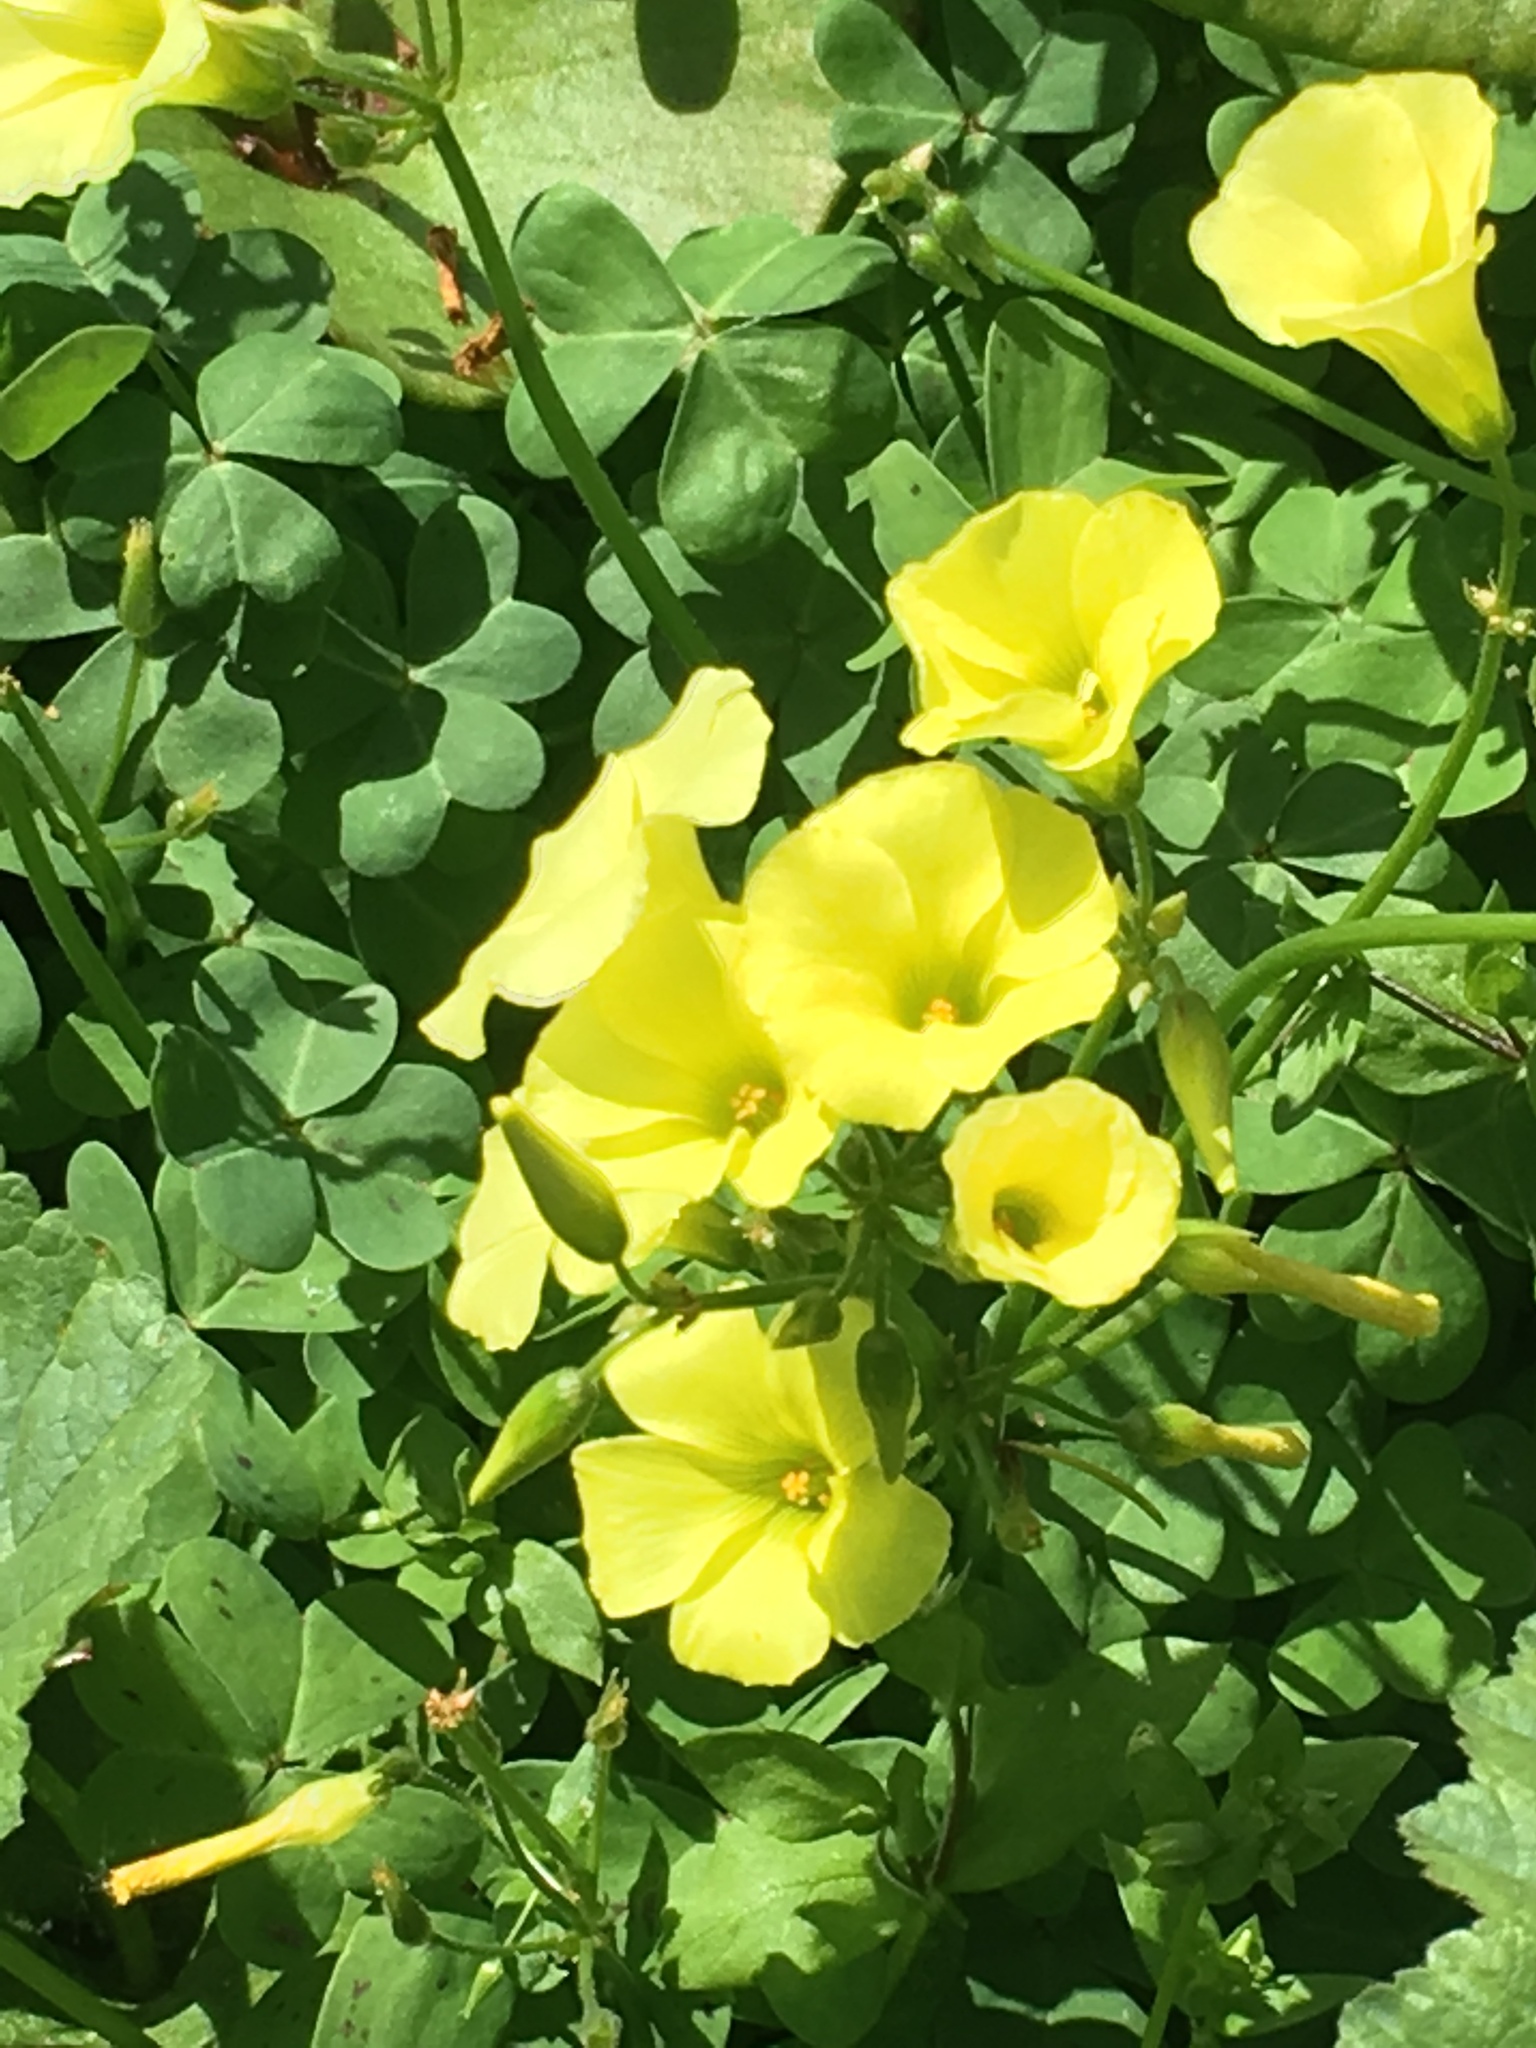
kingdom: Plantae
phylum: Tracheophyta
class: Magnoliopsida
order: Oxalidales
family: Oxalidaceae
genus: Oxalis
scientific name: Oxalis pes-caprae
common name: Bermuda-buttercup
